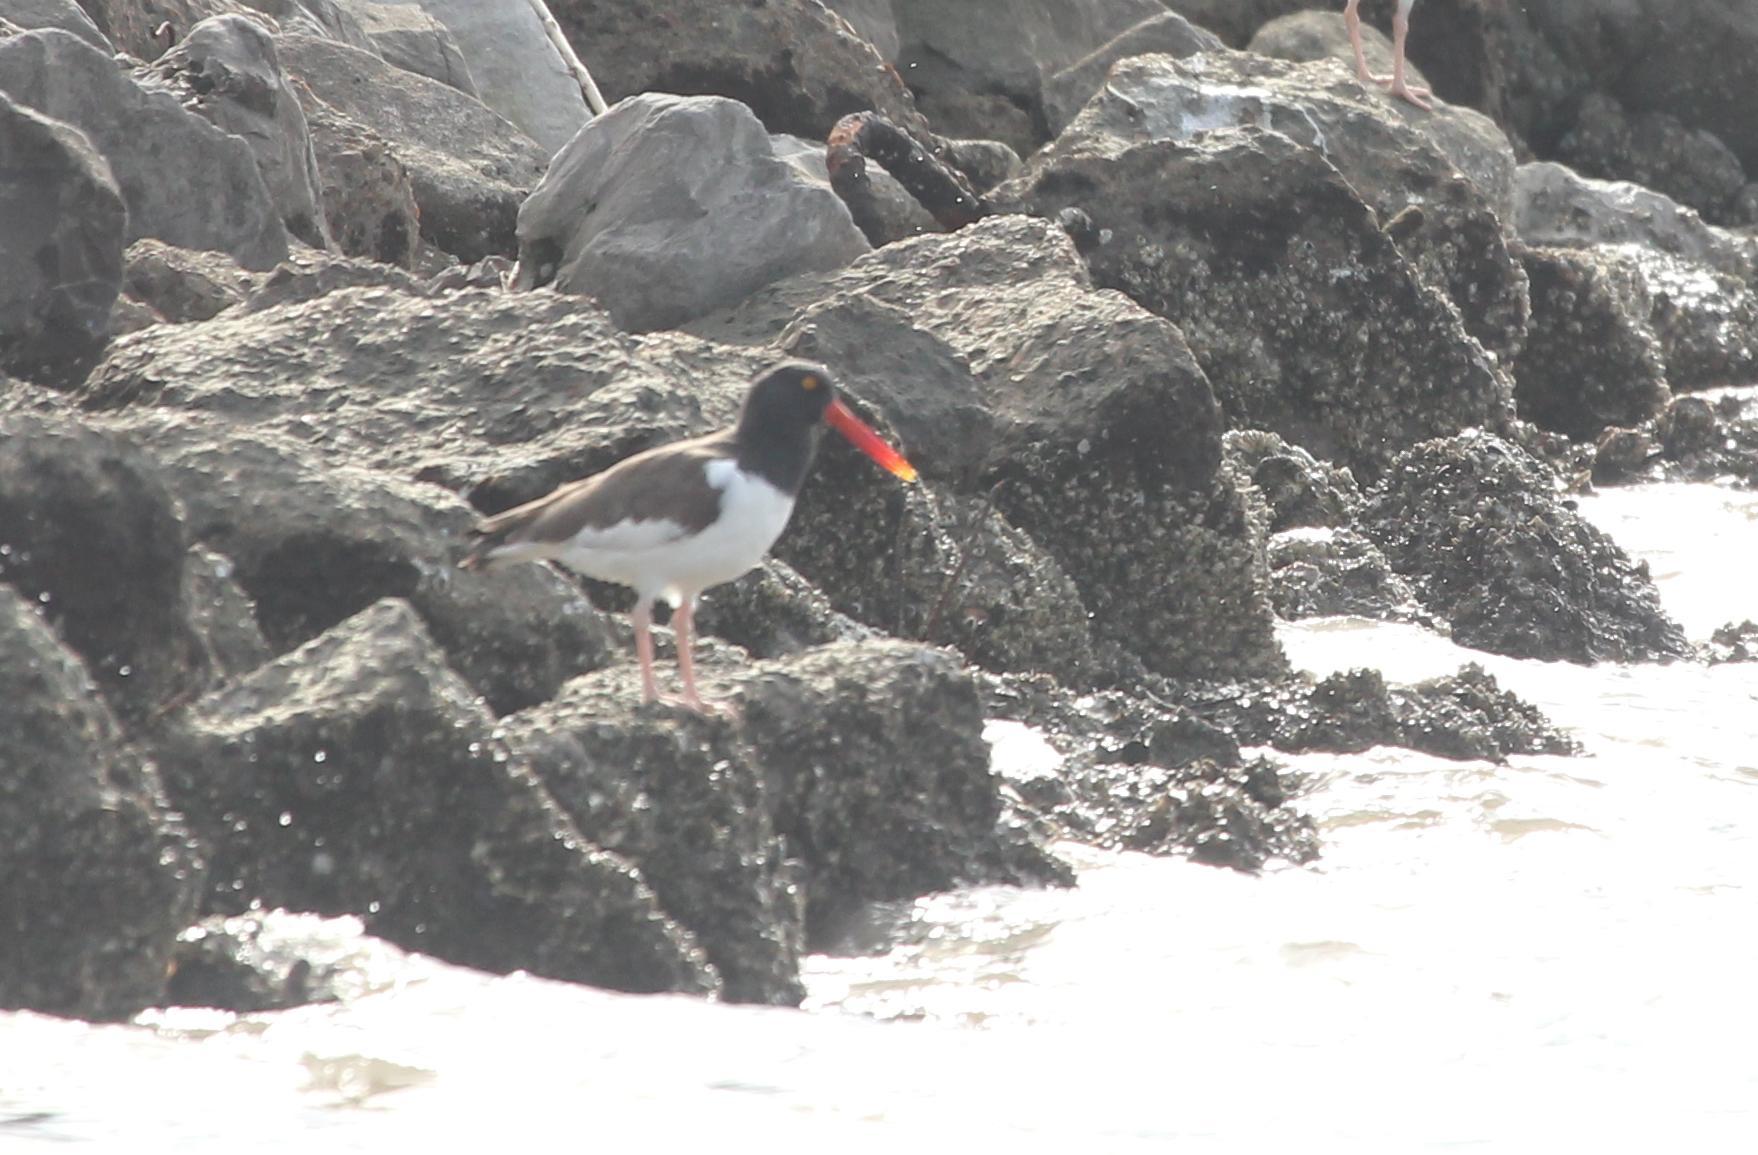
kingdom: Animalia
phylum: Chordata
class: Aves
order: Charadriiformes
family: Haematopodidae
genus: Haematopus
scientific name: Haematopus palliatus
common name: American oystercatcher
